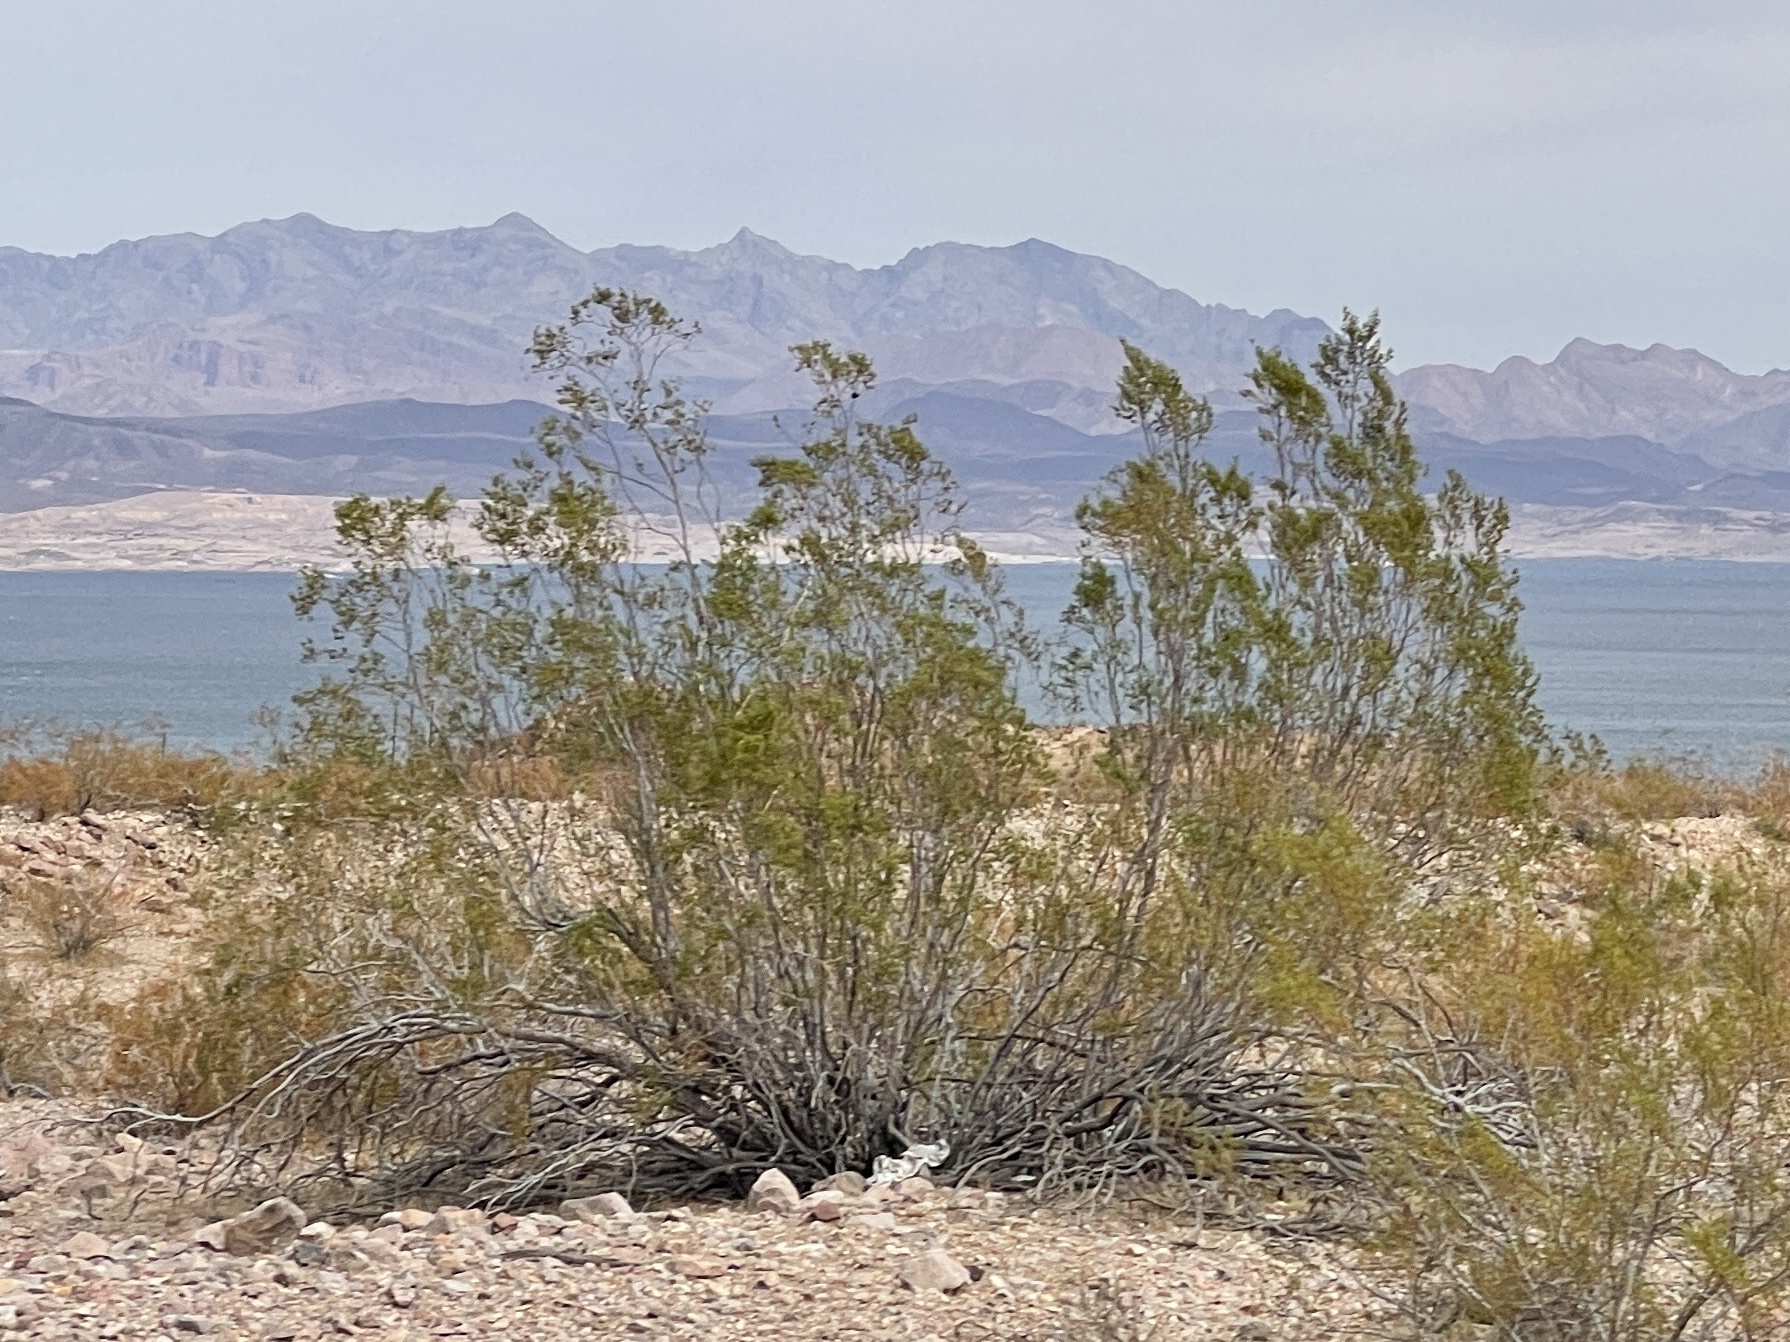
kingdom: Plantae
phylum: Tracheophyta
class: Magnoliopsida
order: Zygophyllales
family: Zygophyllaceae
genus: Larrea
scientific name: Larrea tridentata
